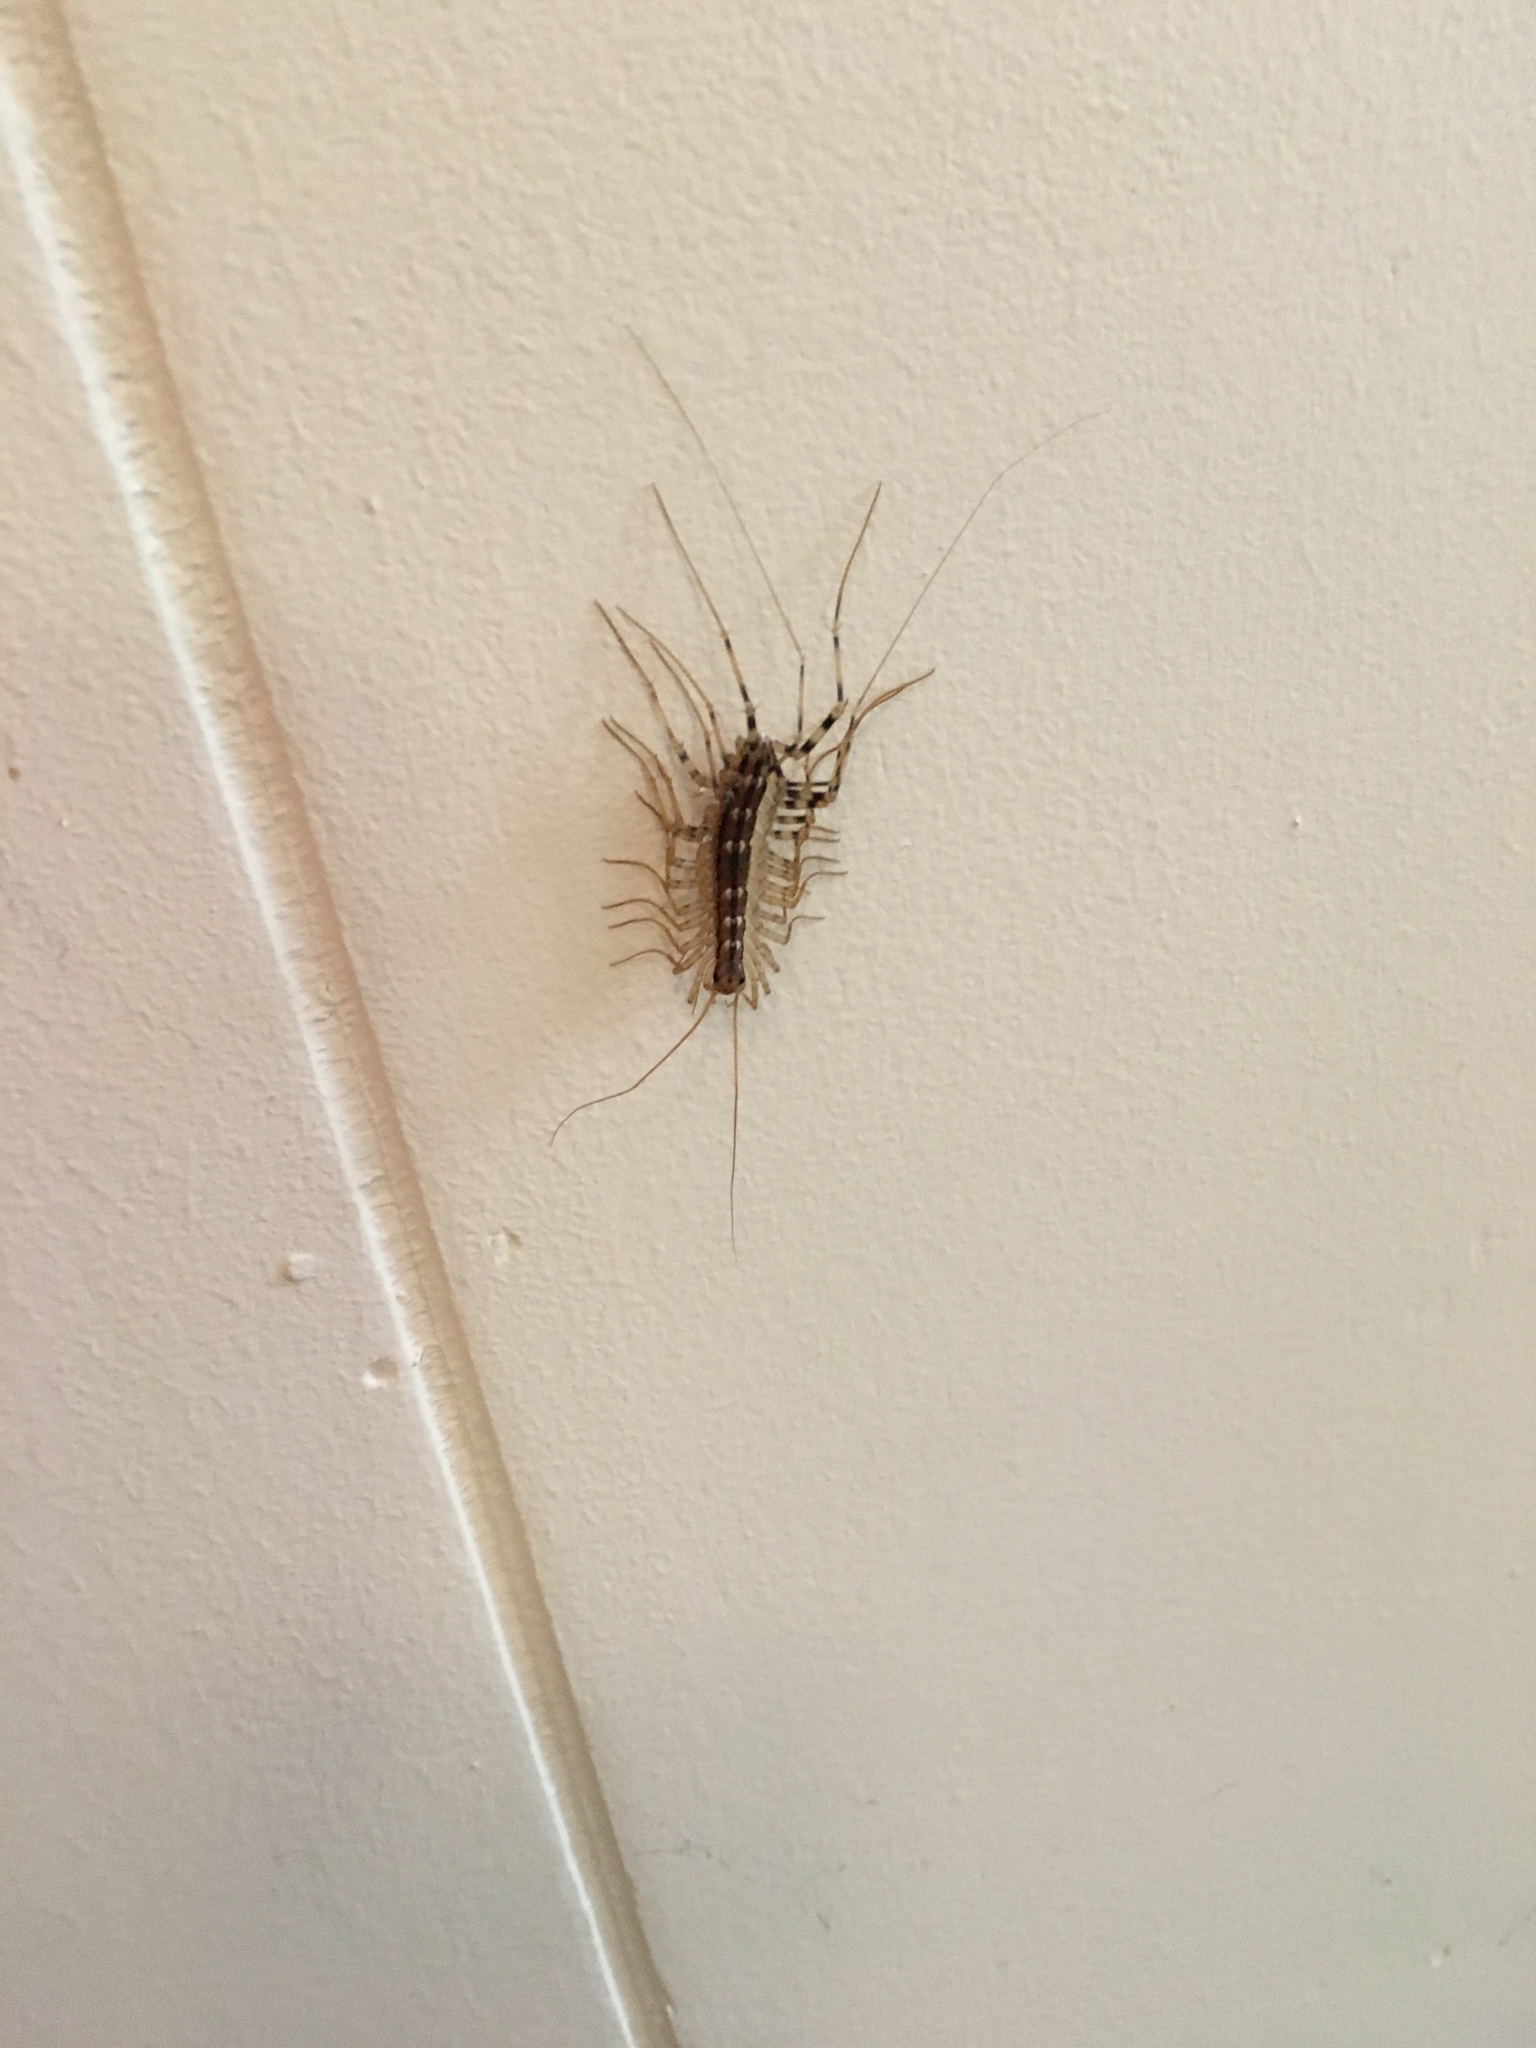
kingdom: Animalia
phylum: Arthropoda
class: Chilopoda
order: Scutigeromorpha
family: Scutigeridae
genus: Scutigera
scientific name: Scutigera coleoptrata
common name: House centipede
